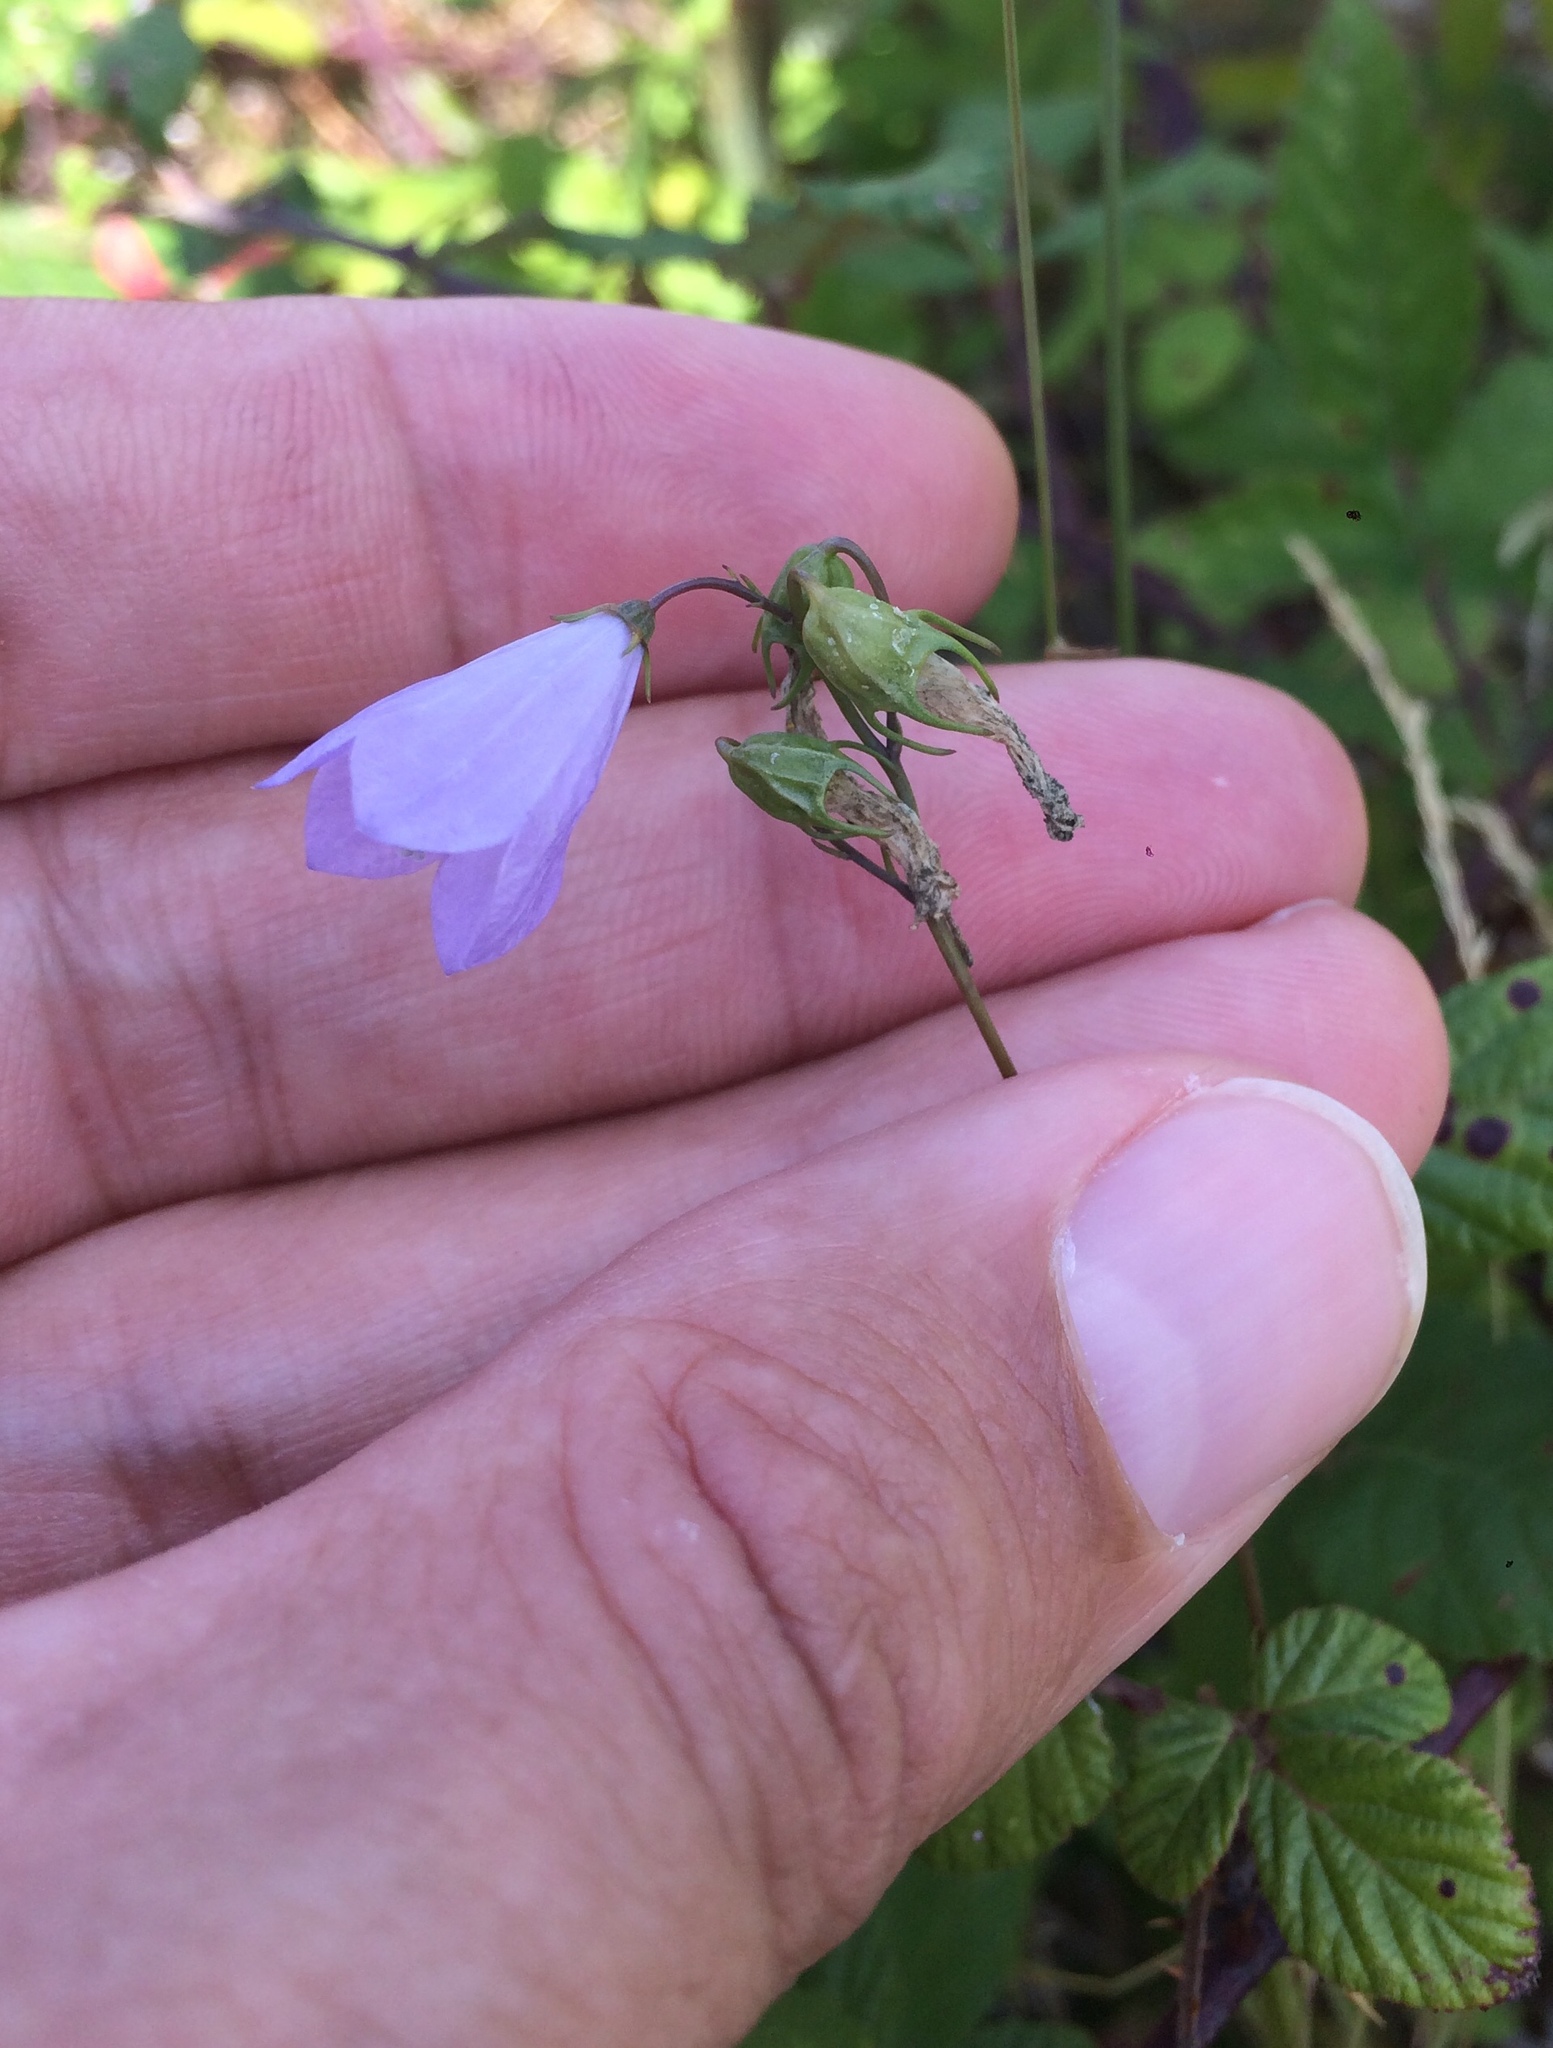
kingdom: Plantae
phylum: Tracheophyta
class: Magnoliopsida
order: Asterales
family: Campanulaceae
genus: Campanula
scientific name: Campanula rotundifolia
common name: Harebell
